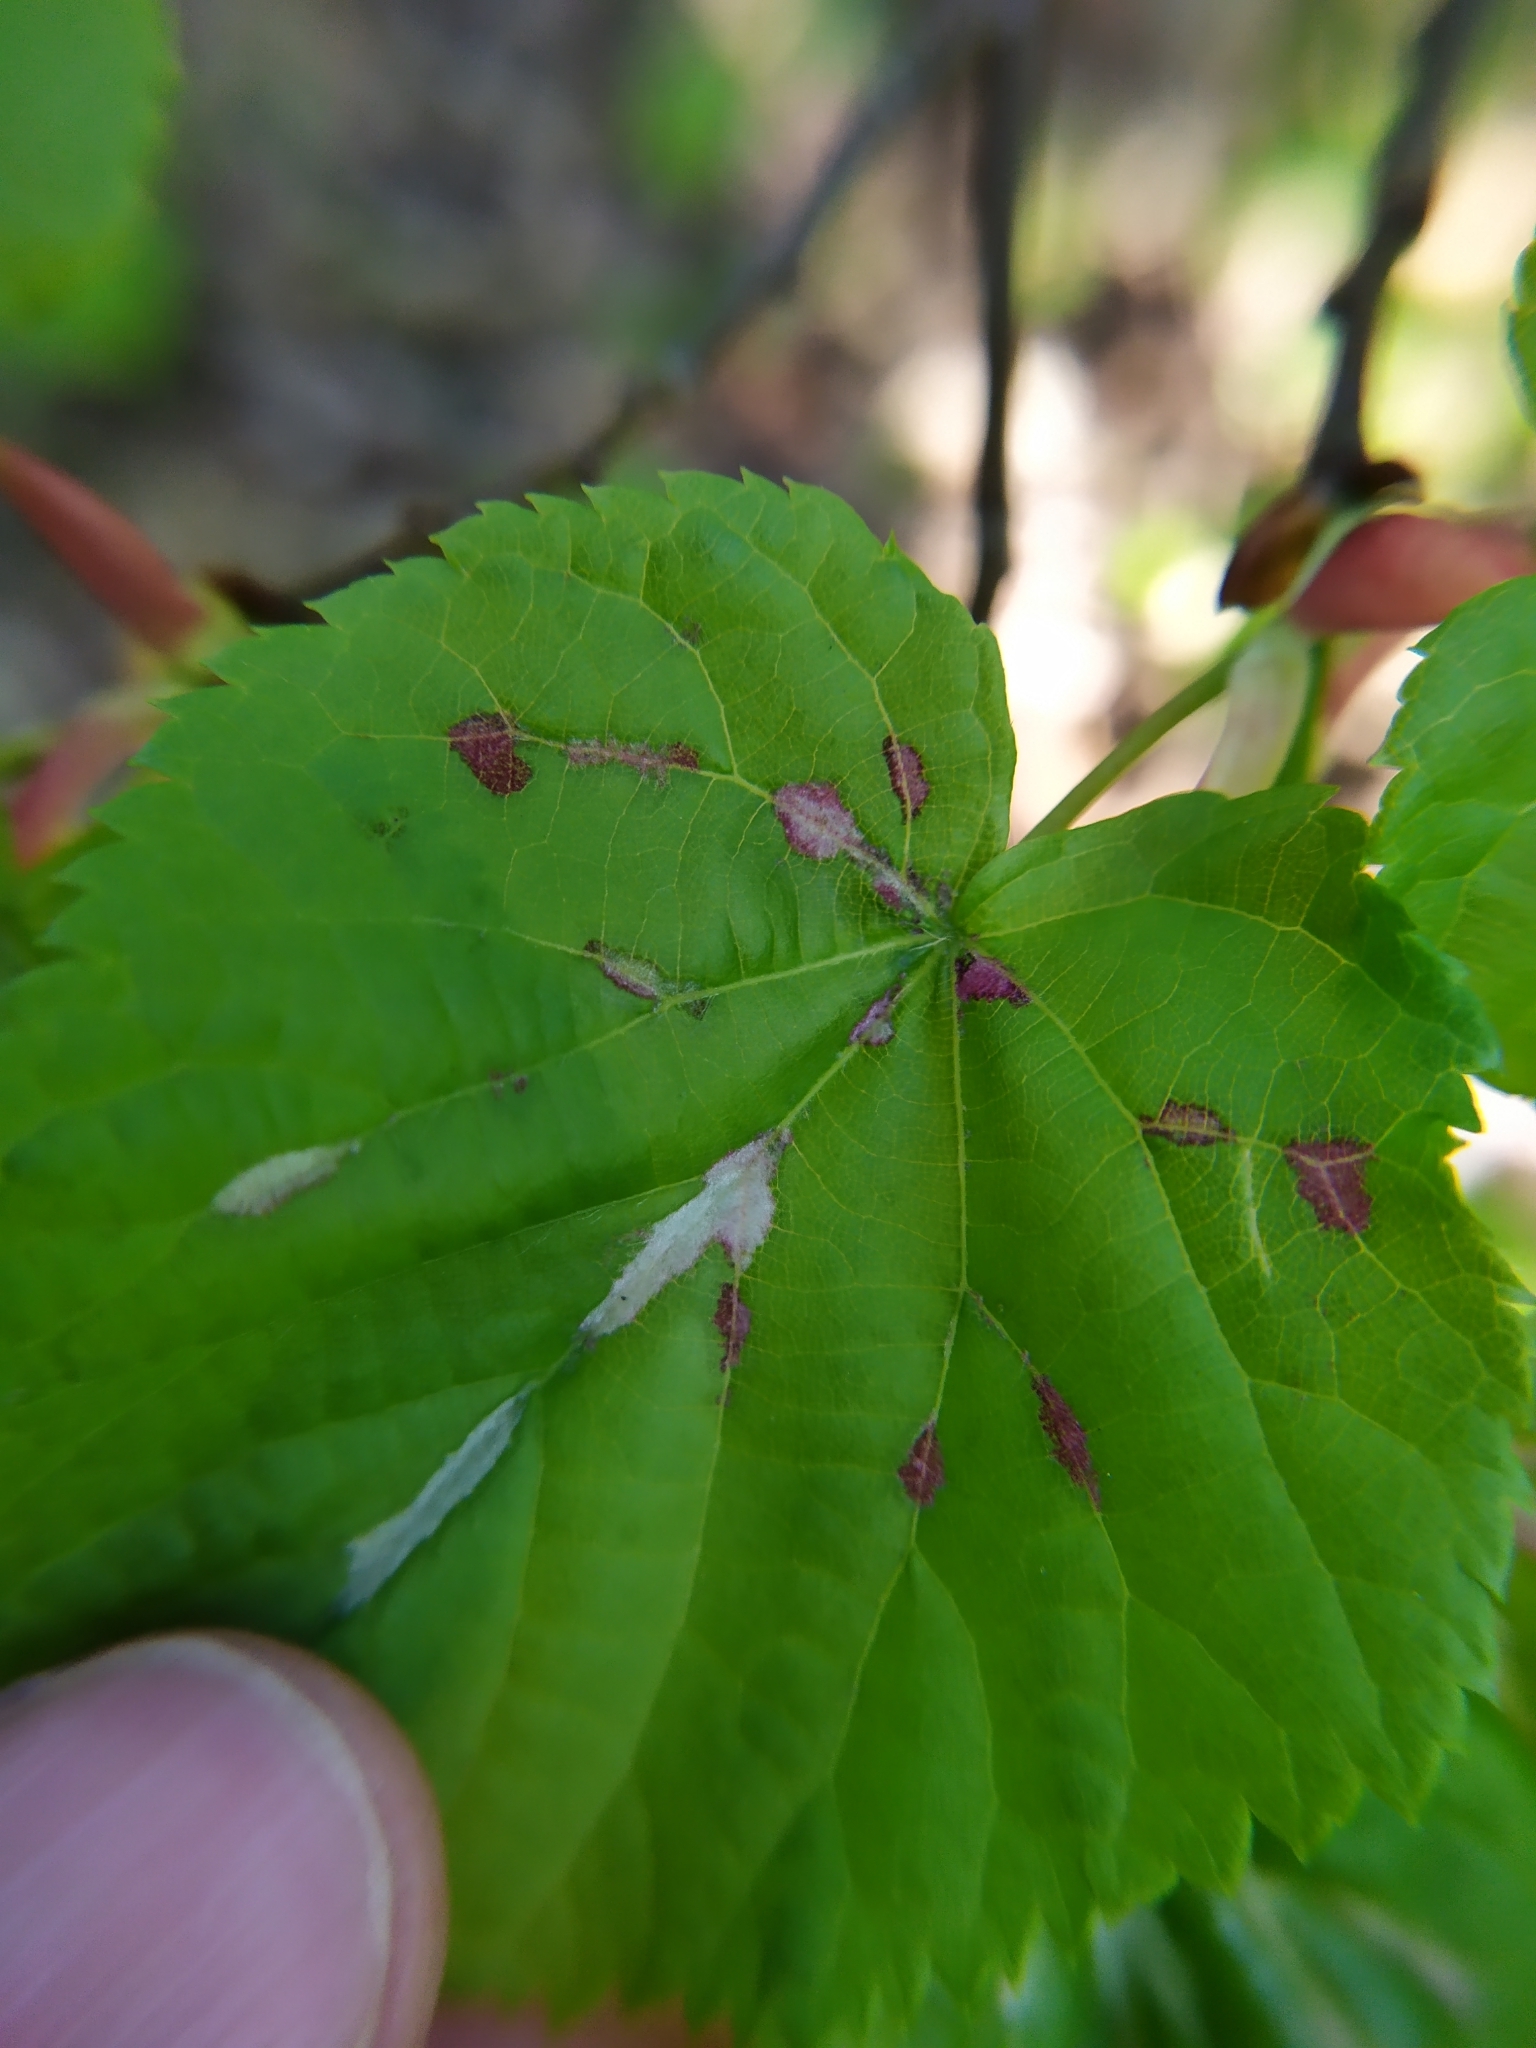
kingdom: Animalia
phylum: Arthropoda
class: Arachnida
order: Trombidiformes
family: Eriophyidae
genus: Eriophyes
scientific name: Eriophyes leiosoma
